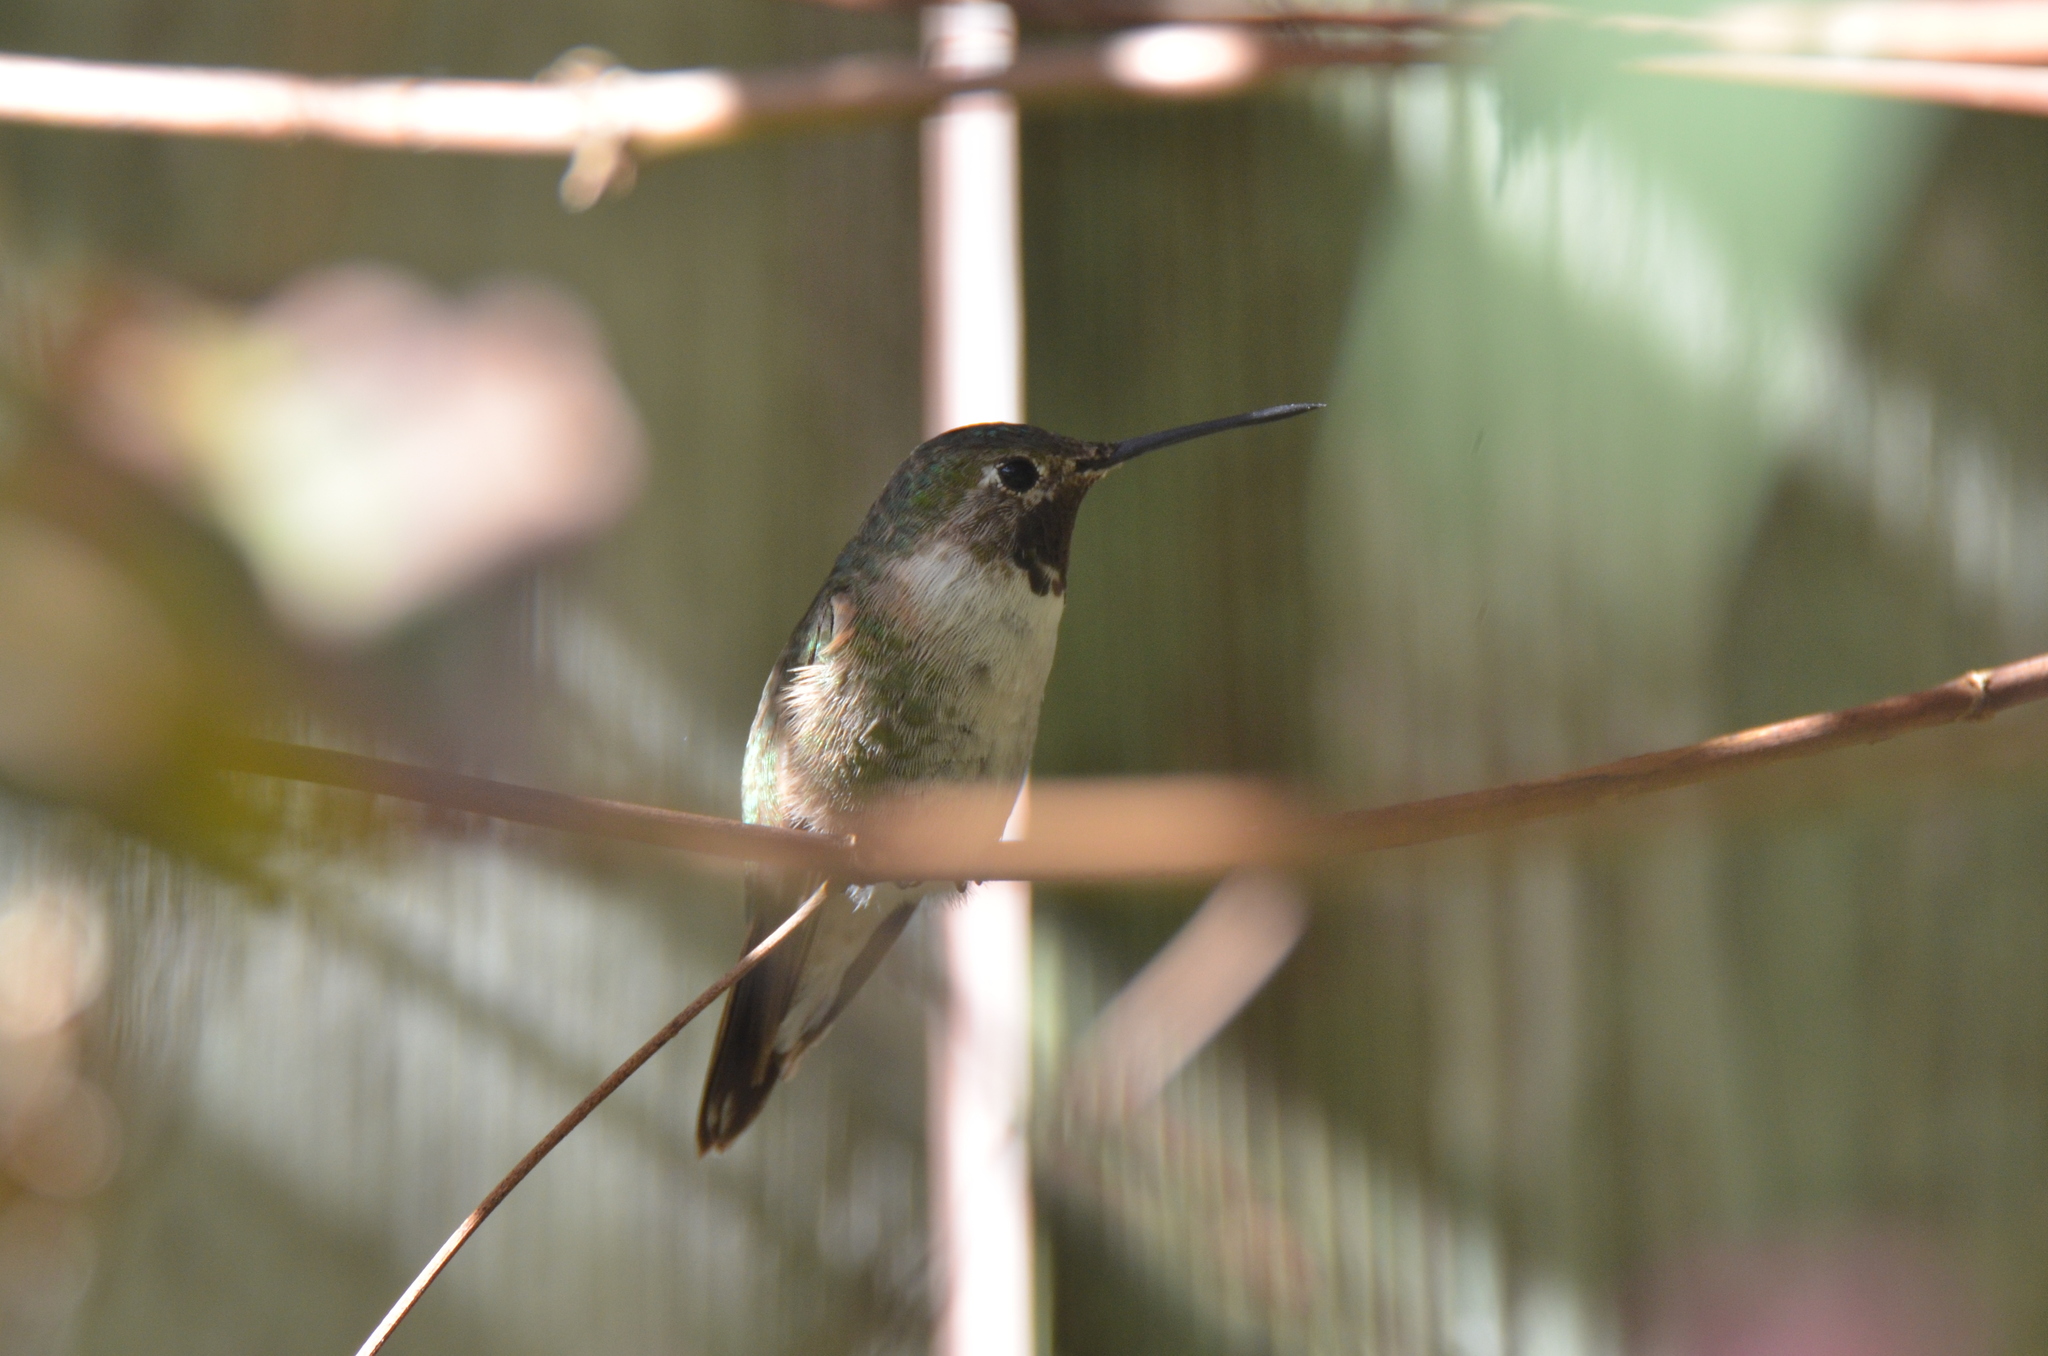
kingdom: Animalia
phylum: Chordata
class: Aves
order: Apodiformes
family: Trochilidae
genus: Selasphorus
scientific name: Selasphorus platycercus
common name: Broad-tailed hummingbird
